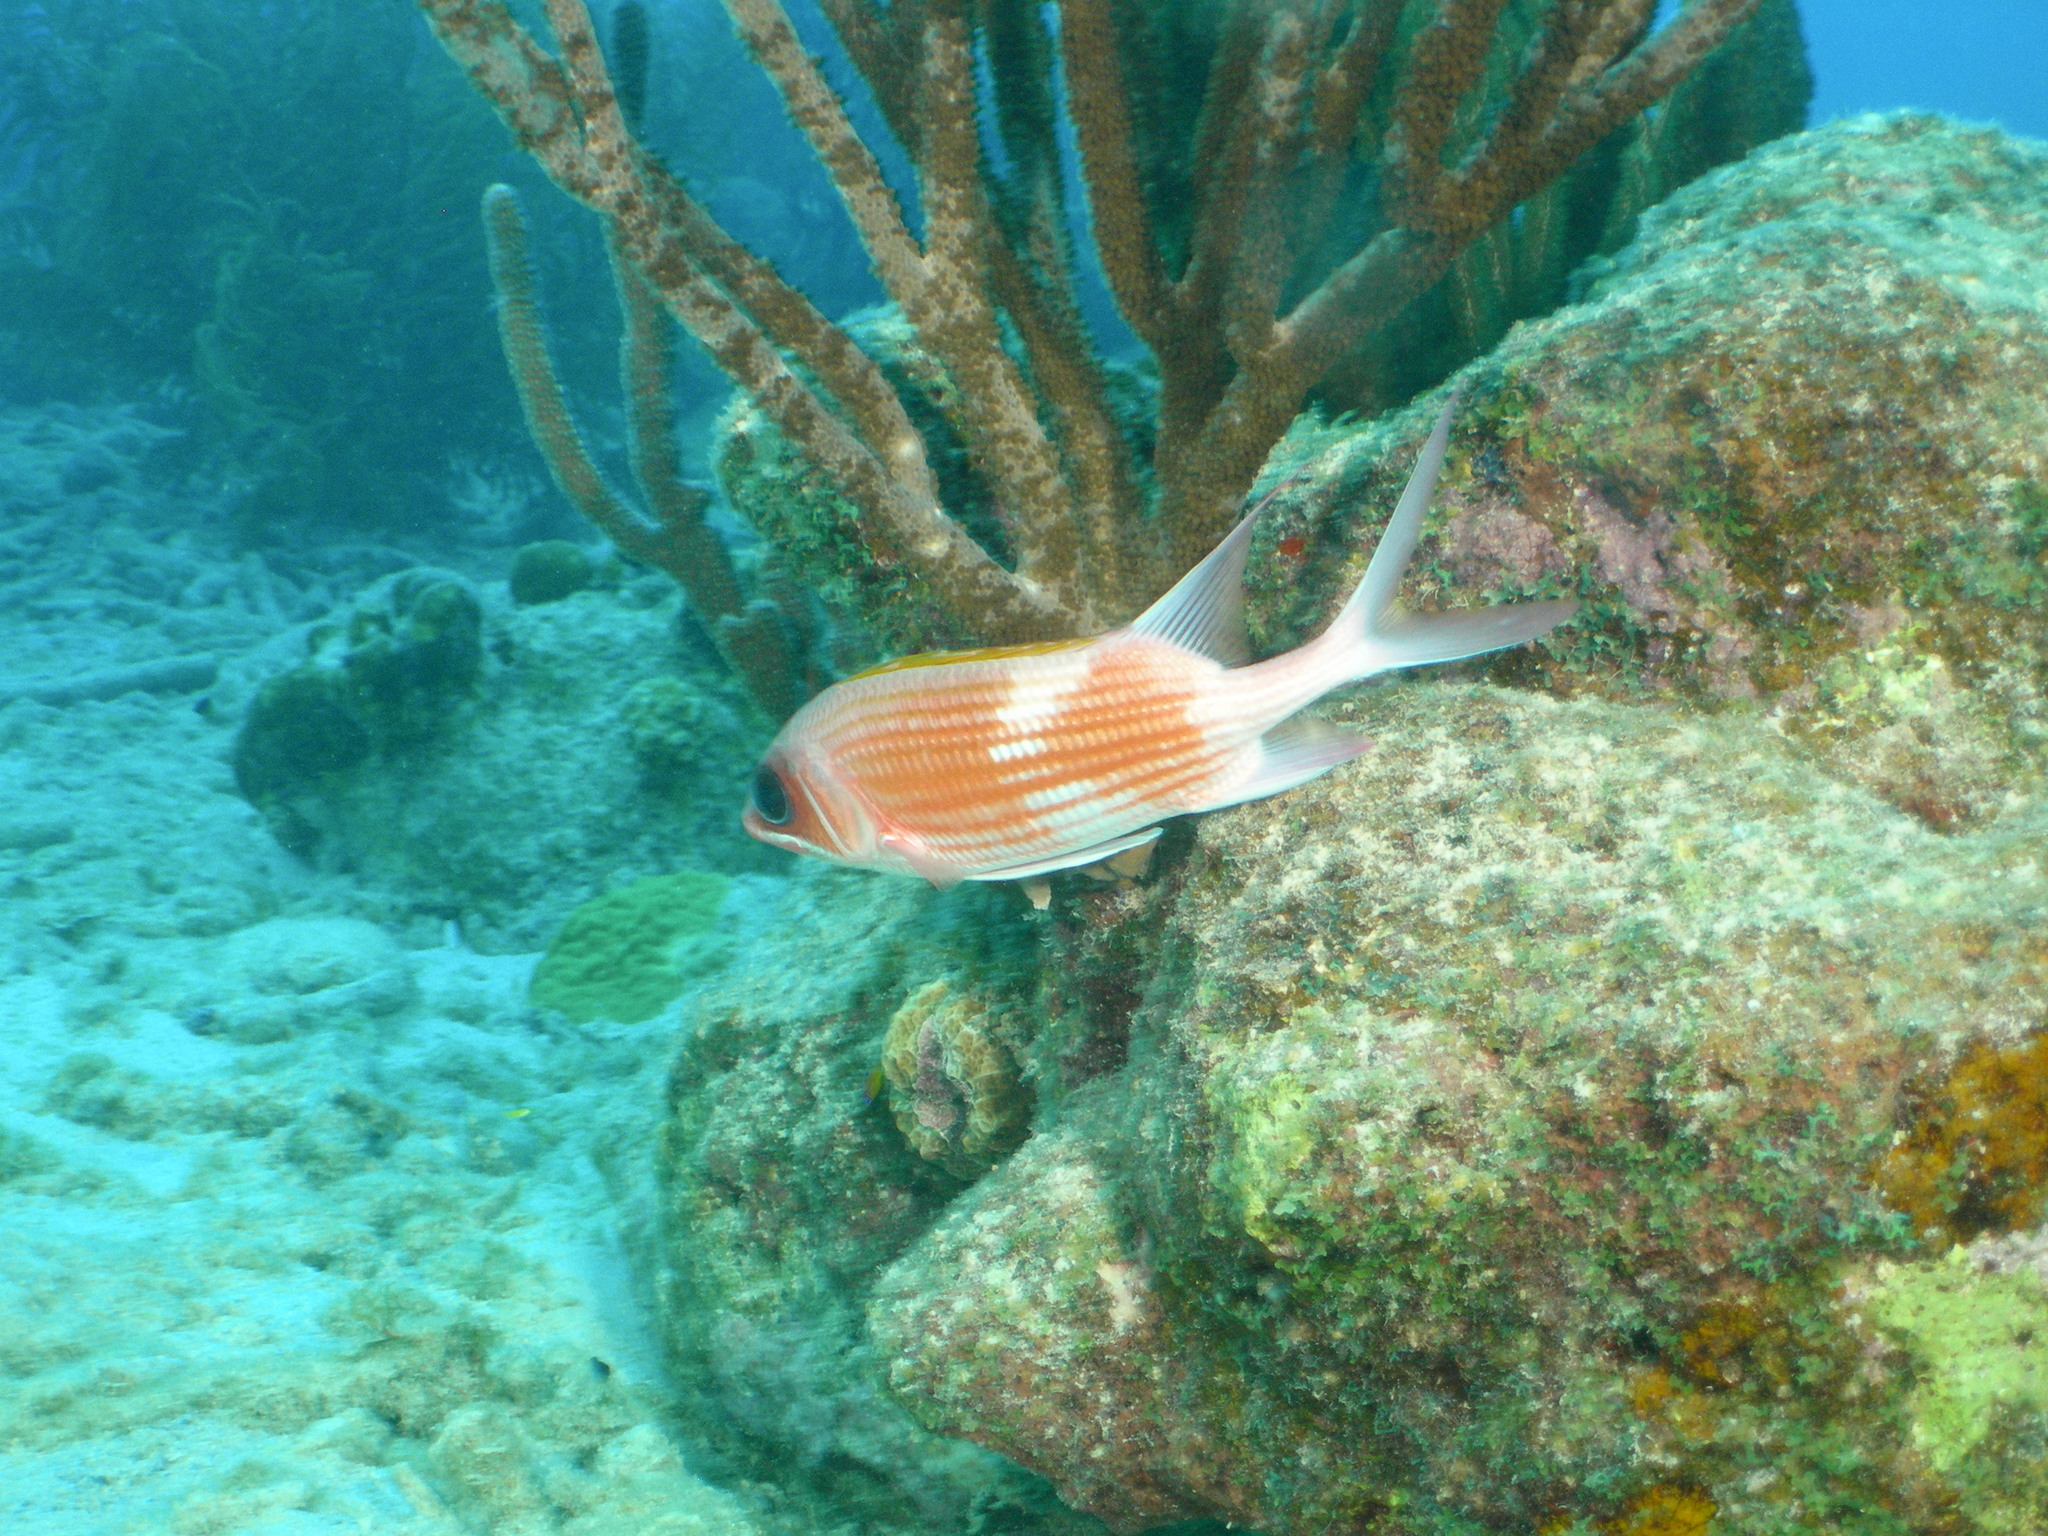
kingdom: Animalia
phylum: Chordata
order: Beryciformes
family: Holocentridae
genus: Holocentrus
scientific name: Holocentrus adscensionis
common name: Squirrelfish
